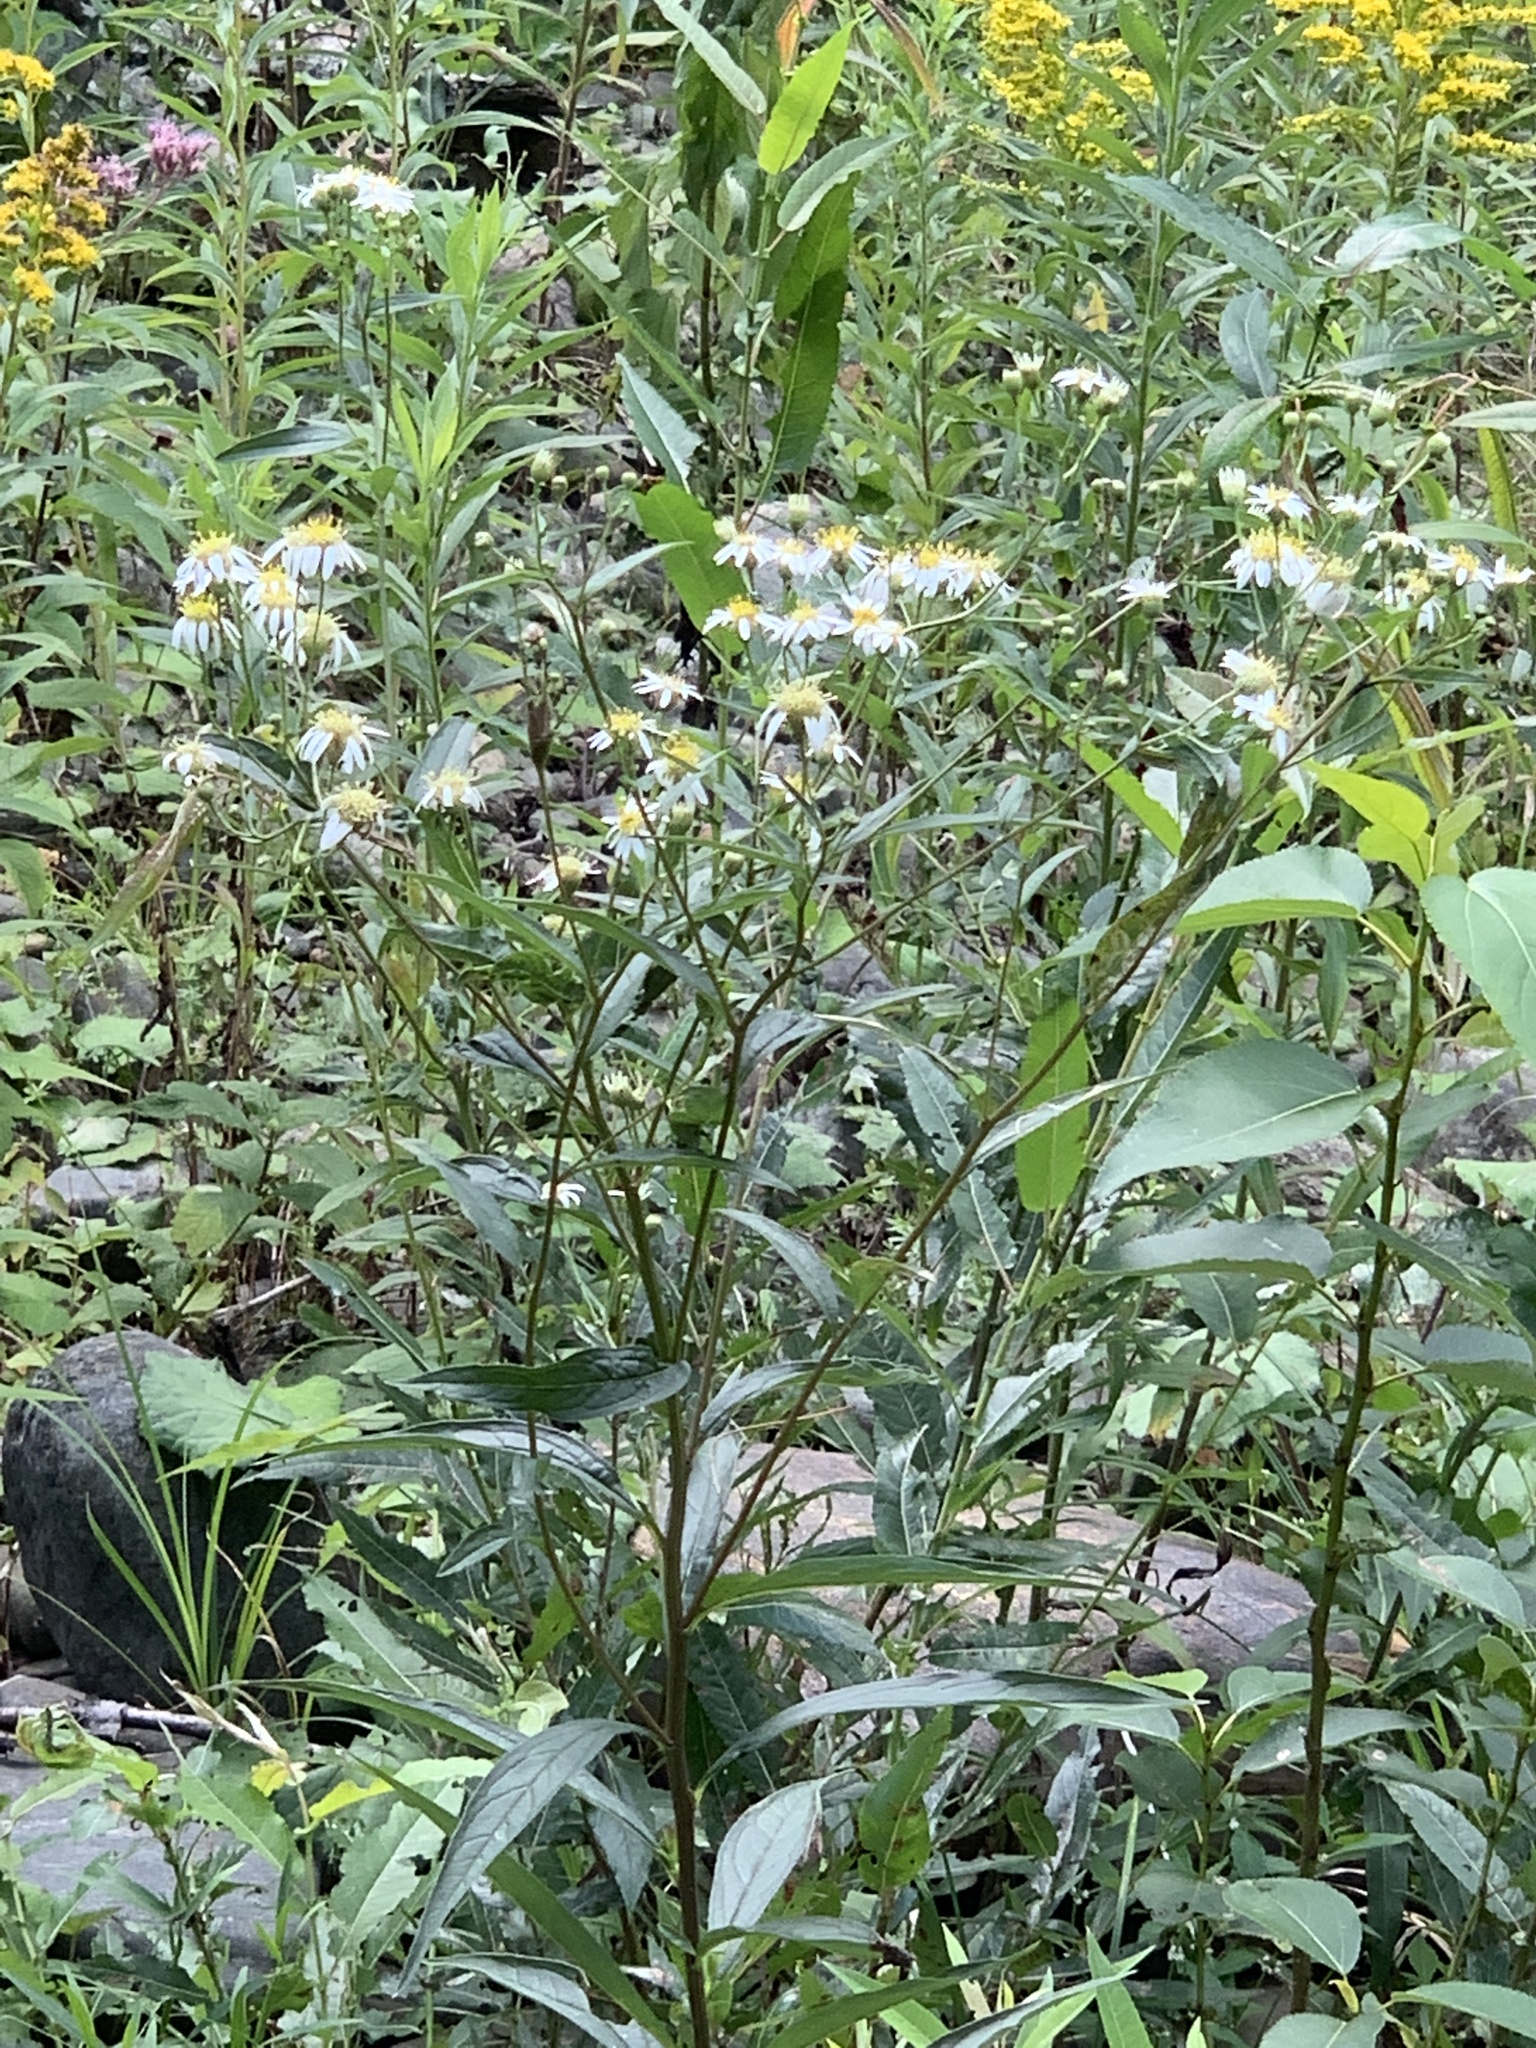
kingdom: Plantae
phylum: Tracheophyta
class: Magnoliopsida
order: Asterales
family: Asteraceae
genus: Doellingeria
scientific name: Doellingeria umbellata
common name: Flat-top white aster
